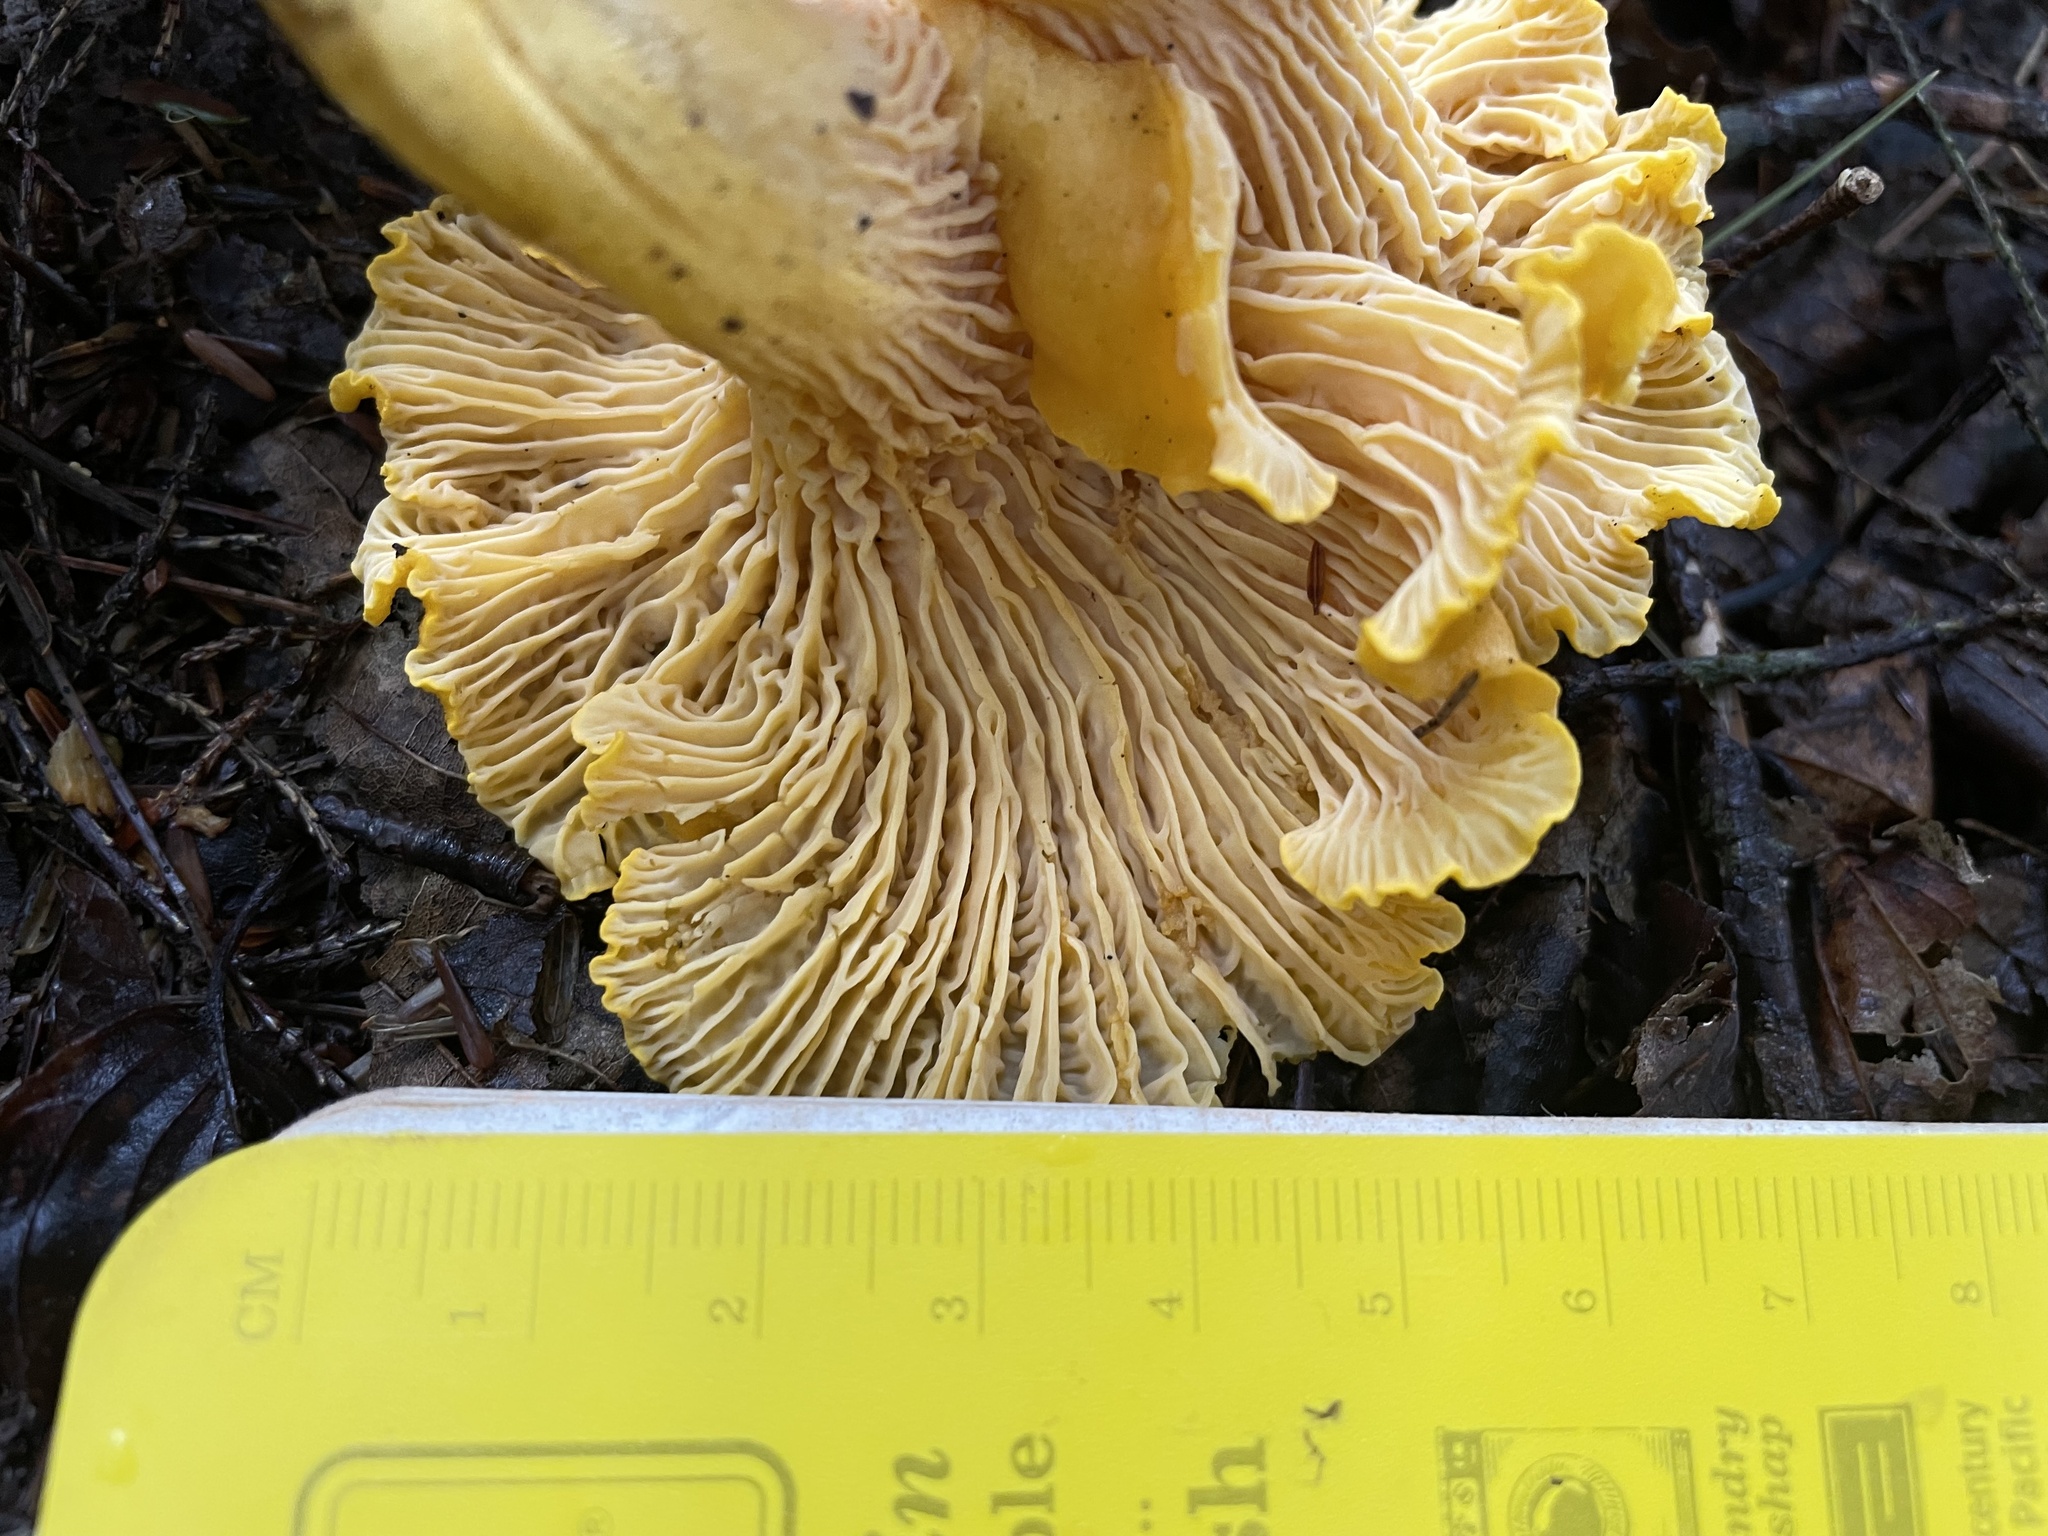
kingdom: Fungi
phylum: Basidiomycota
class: Agaricomycetes
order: Cantharellales
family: Hydnaceae
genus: Cantharellus
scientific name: Cantharellus enelensis
